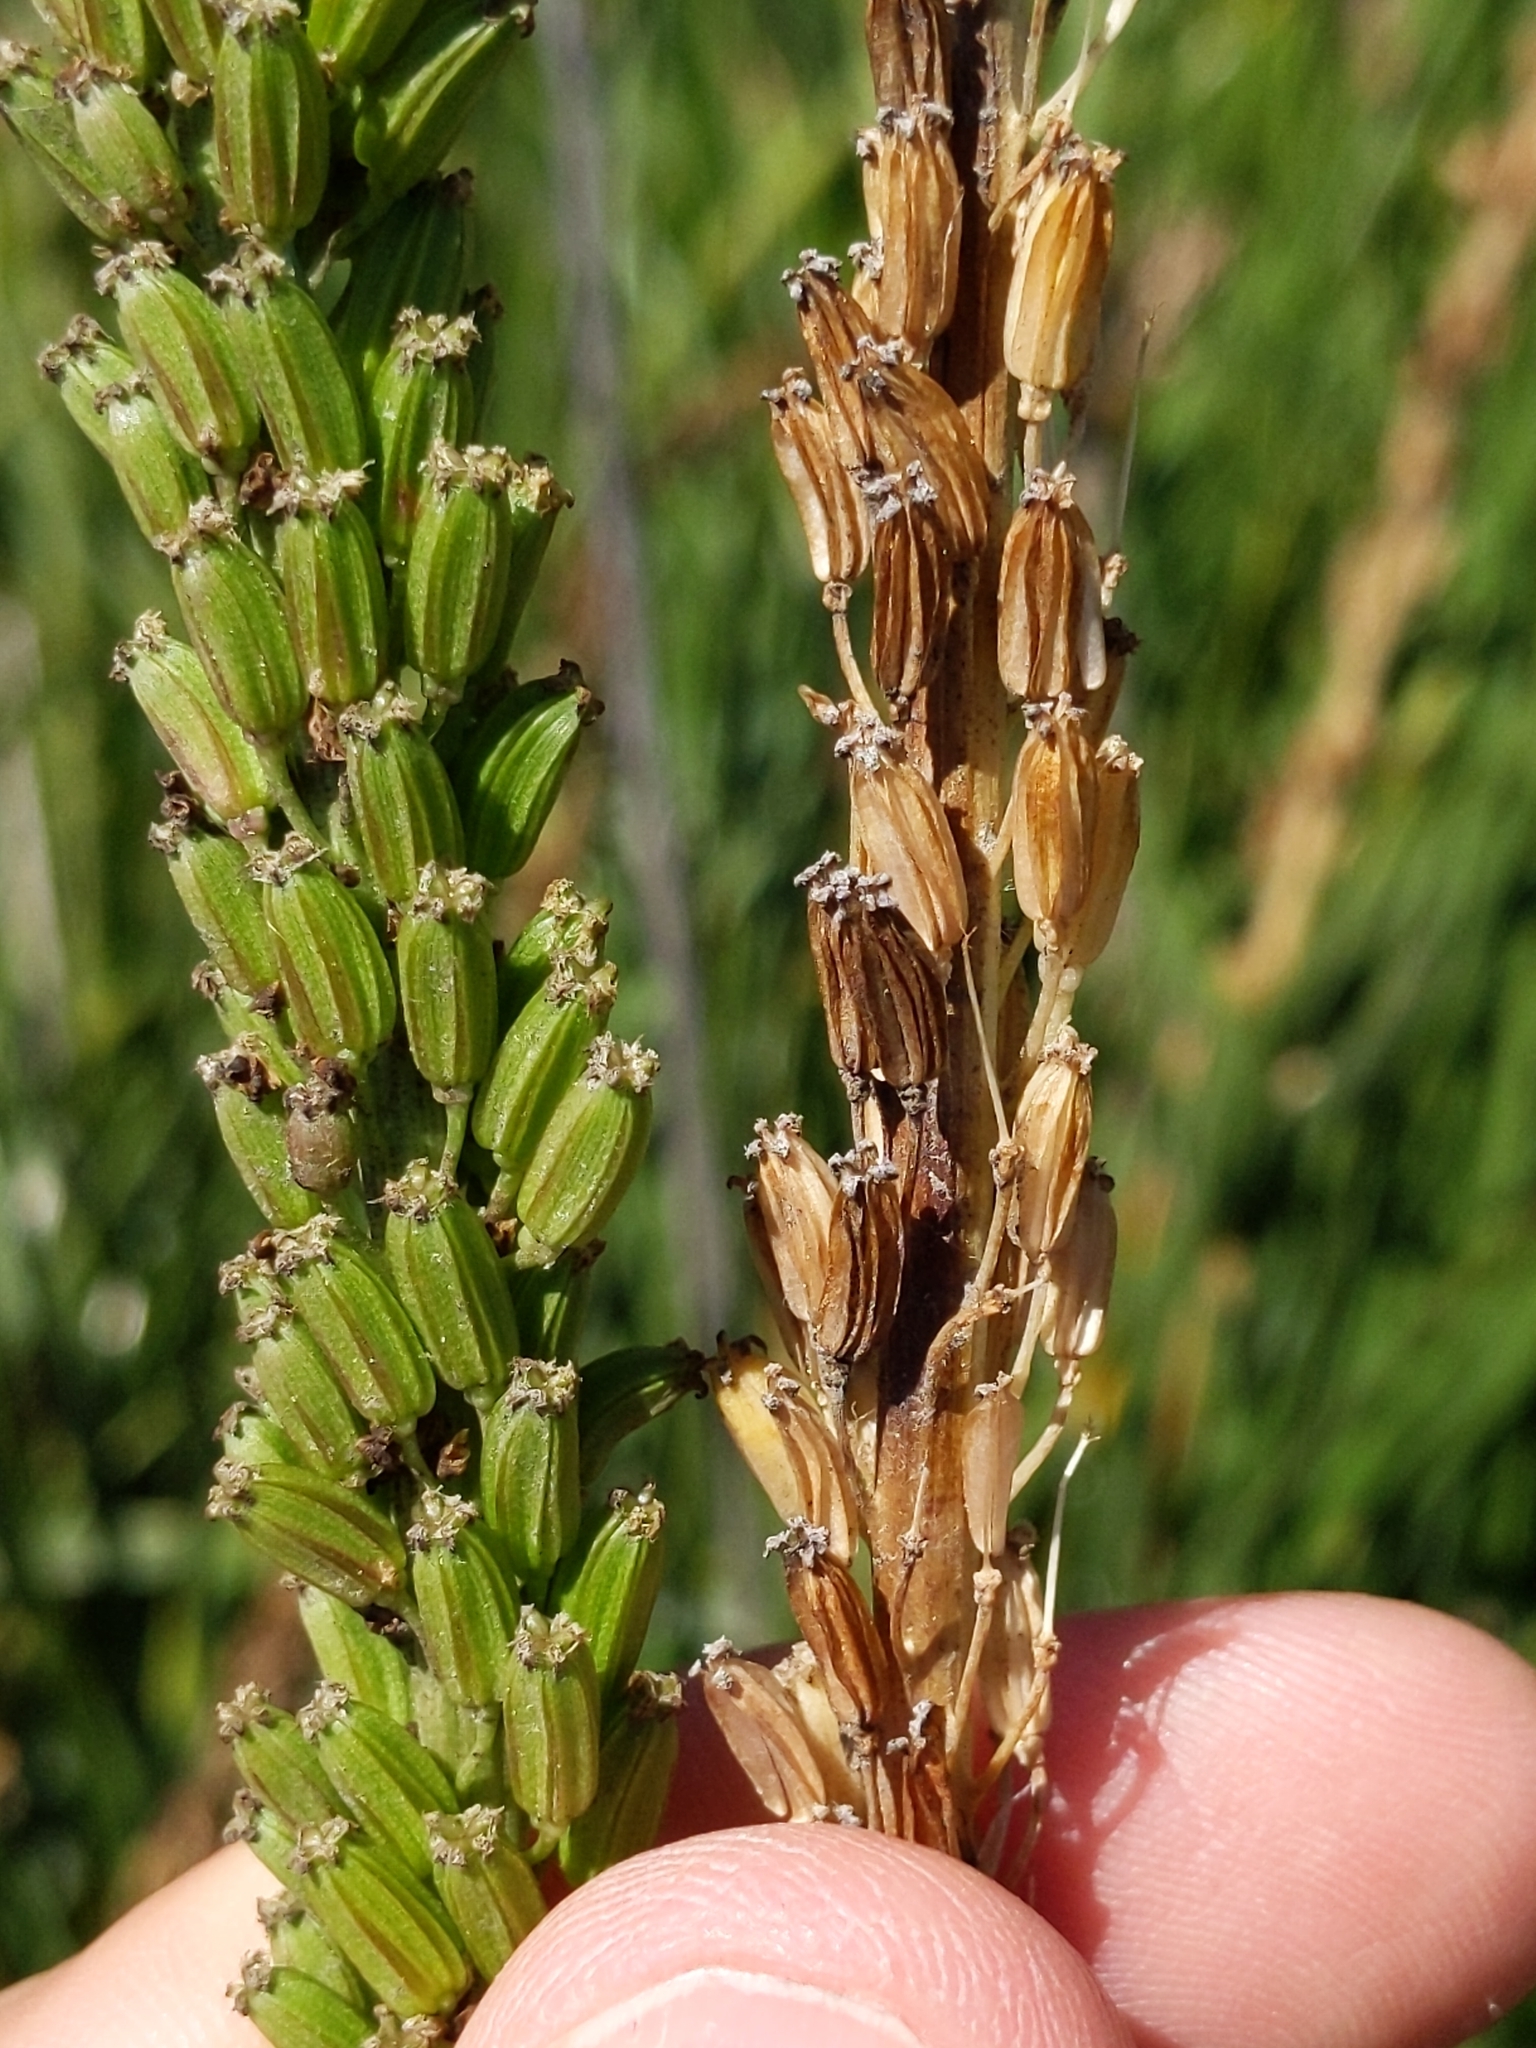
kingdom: Plantae
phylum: Tracheophyta
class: Liliopsida
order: Alismatales
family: Juncaginaceae
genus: Triglochin
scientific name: Triglochin maritima
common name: Sea arrowgrass
